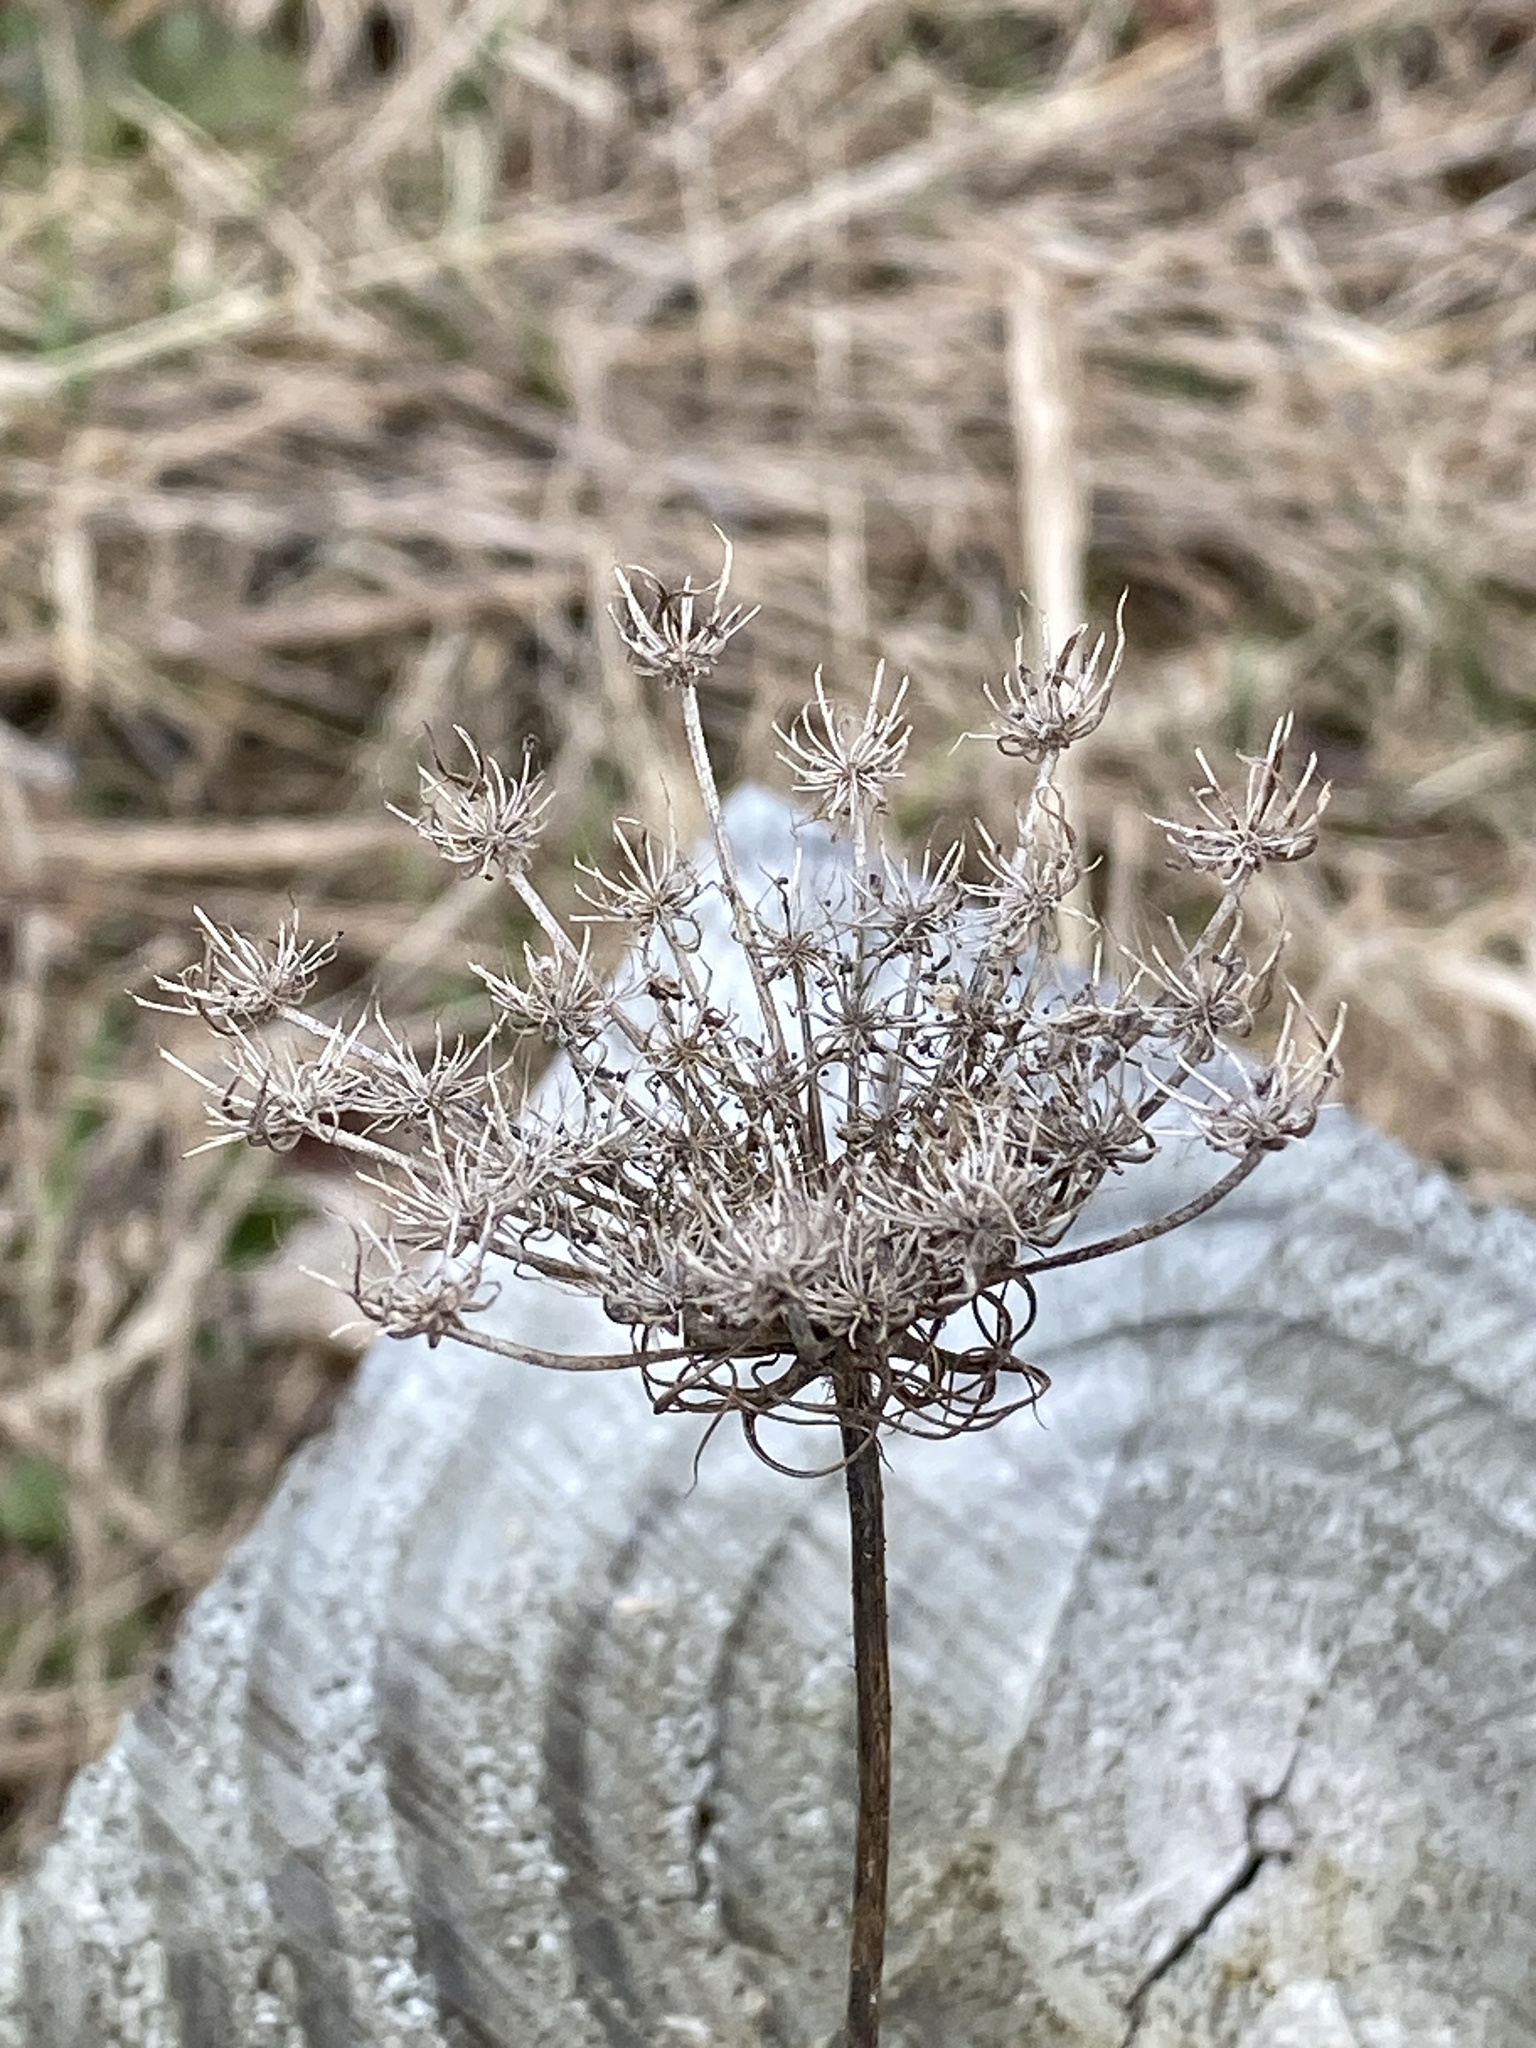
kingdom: Plantae
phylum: Tracheophyta
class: Magnoliopsida
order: Apiales
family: Apiaceae
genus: Daucus
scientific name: Daucus carota
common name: Wild carrot
